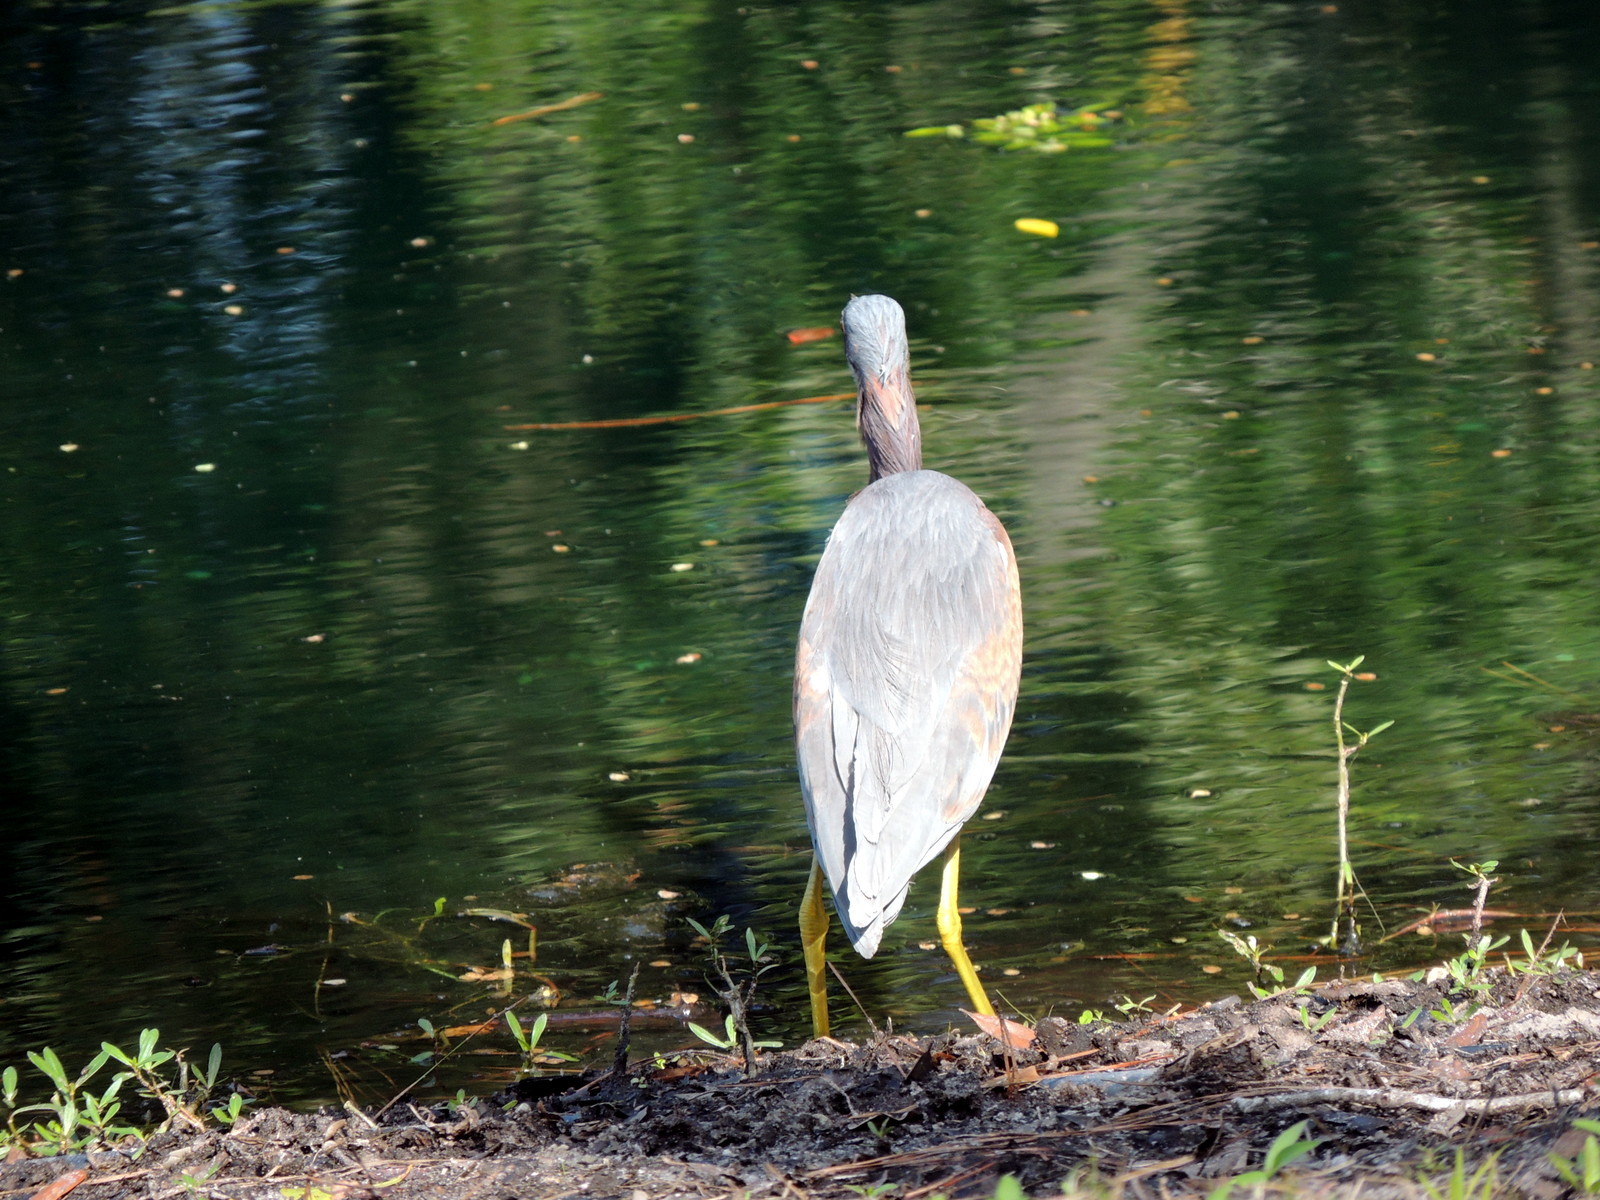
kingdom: Animalia
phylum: Chordata
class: Aves
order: Pelecaniformes
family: Ardeidae
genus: Egretta
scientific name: Egretta tricolor
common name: Tricolored heron
